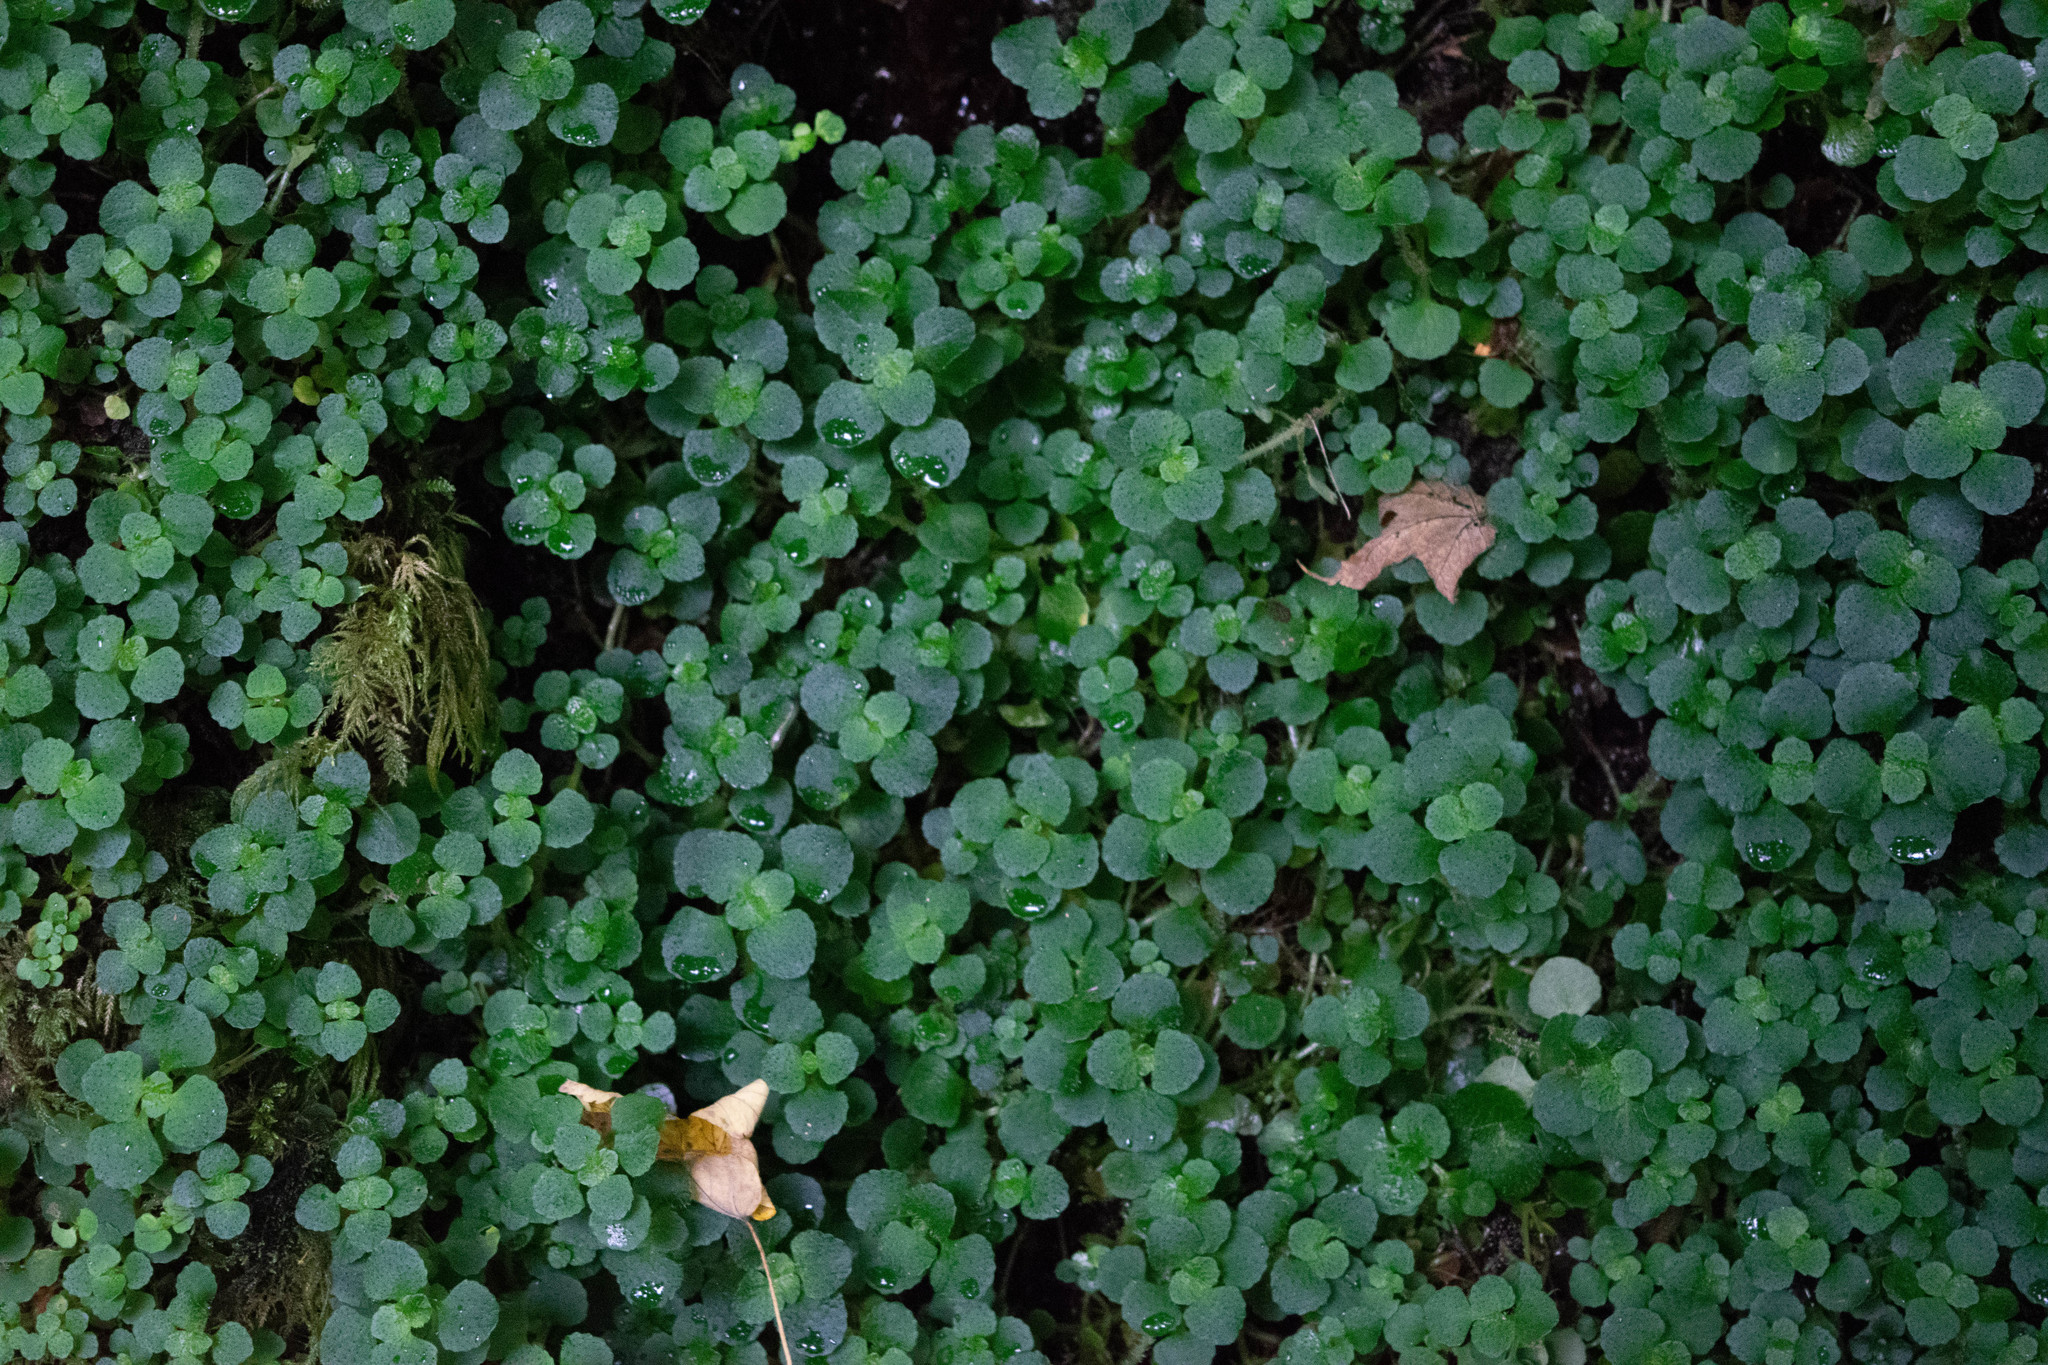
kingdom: Plantae
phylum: Tracheophyta
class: Magnoliopsida
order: Saxifragales
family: Saxifragaceae
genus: Chrysosplenium
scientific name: Chrysosplenium oppositifolium
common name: Opposite-leaved golden-saxifrage
